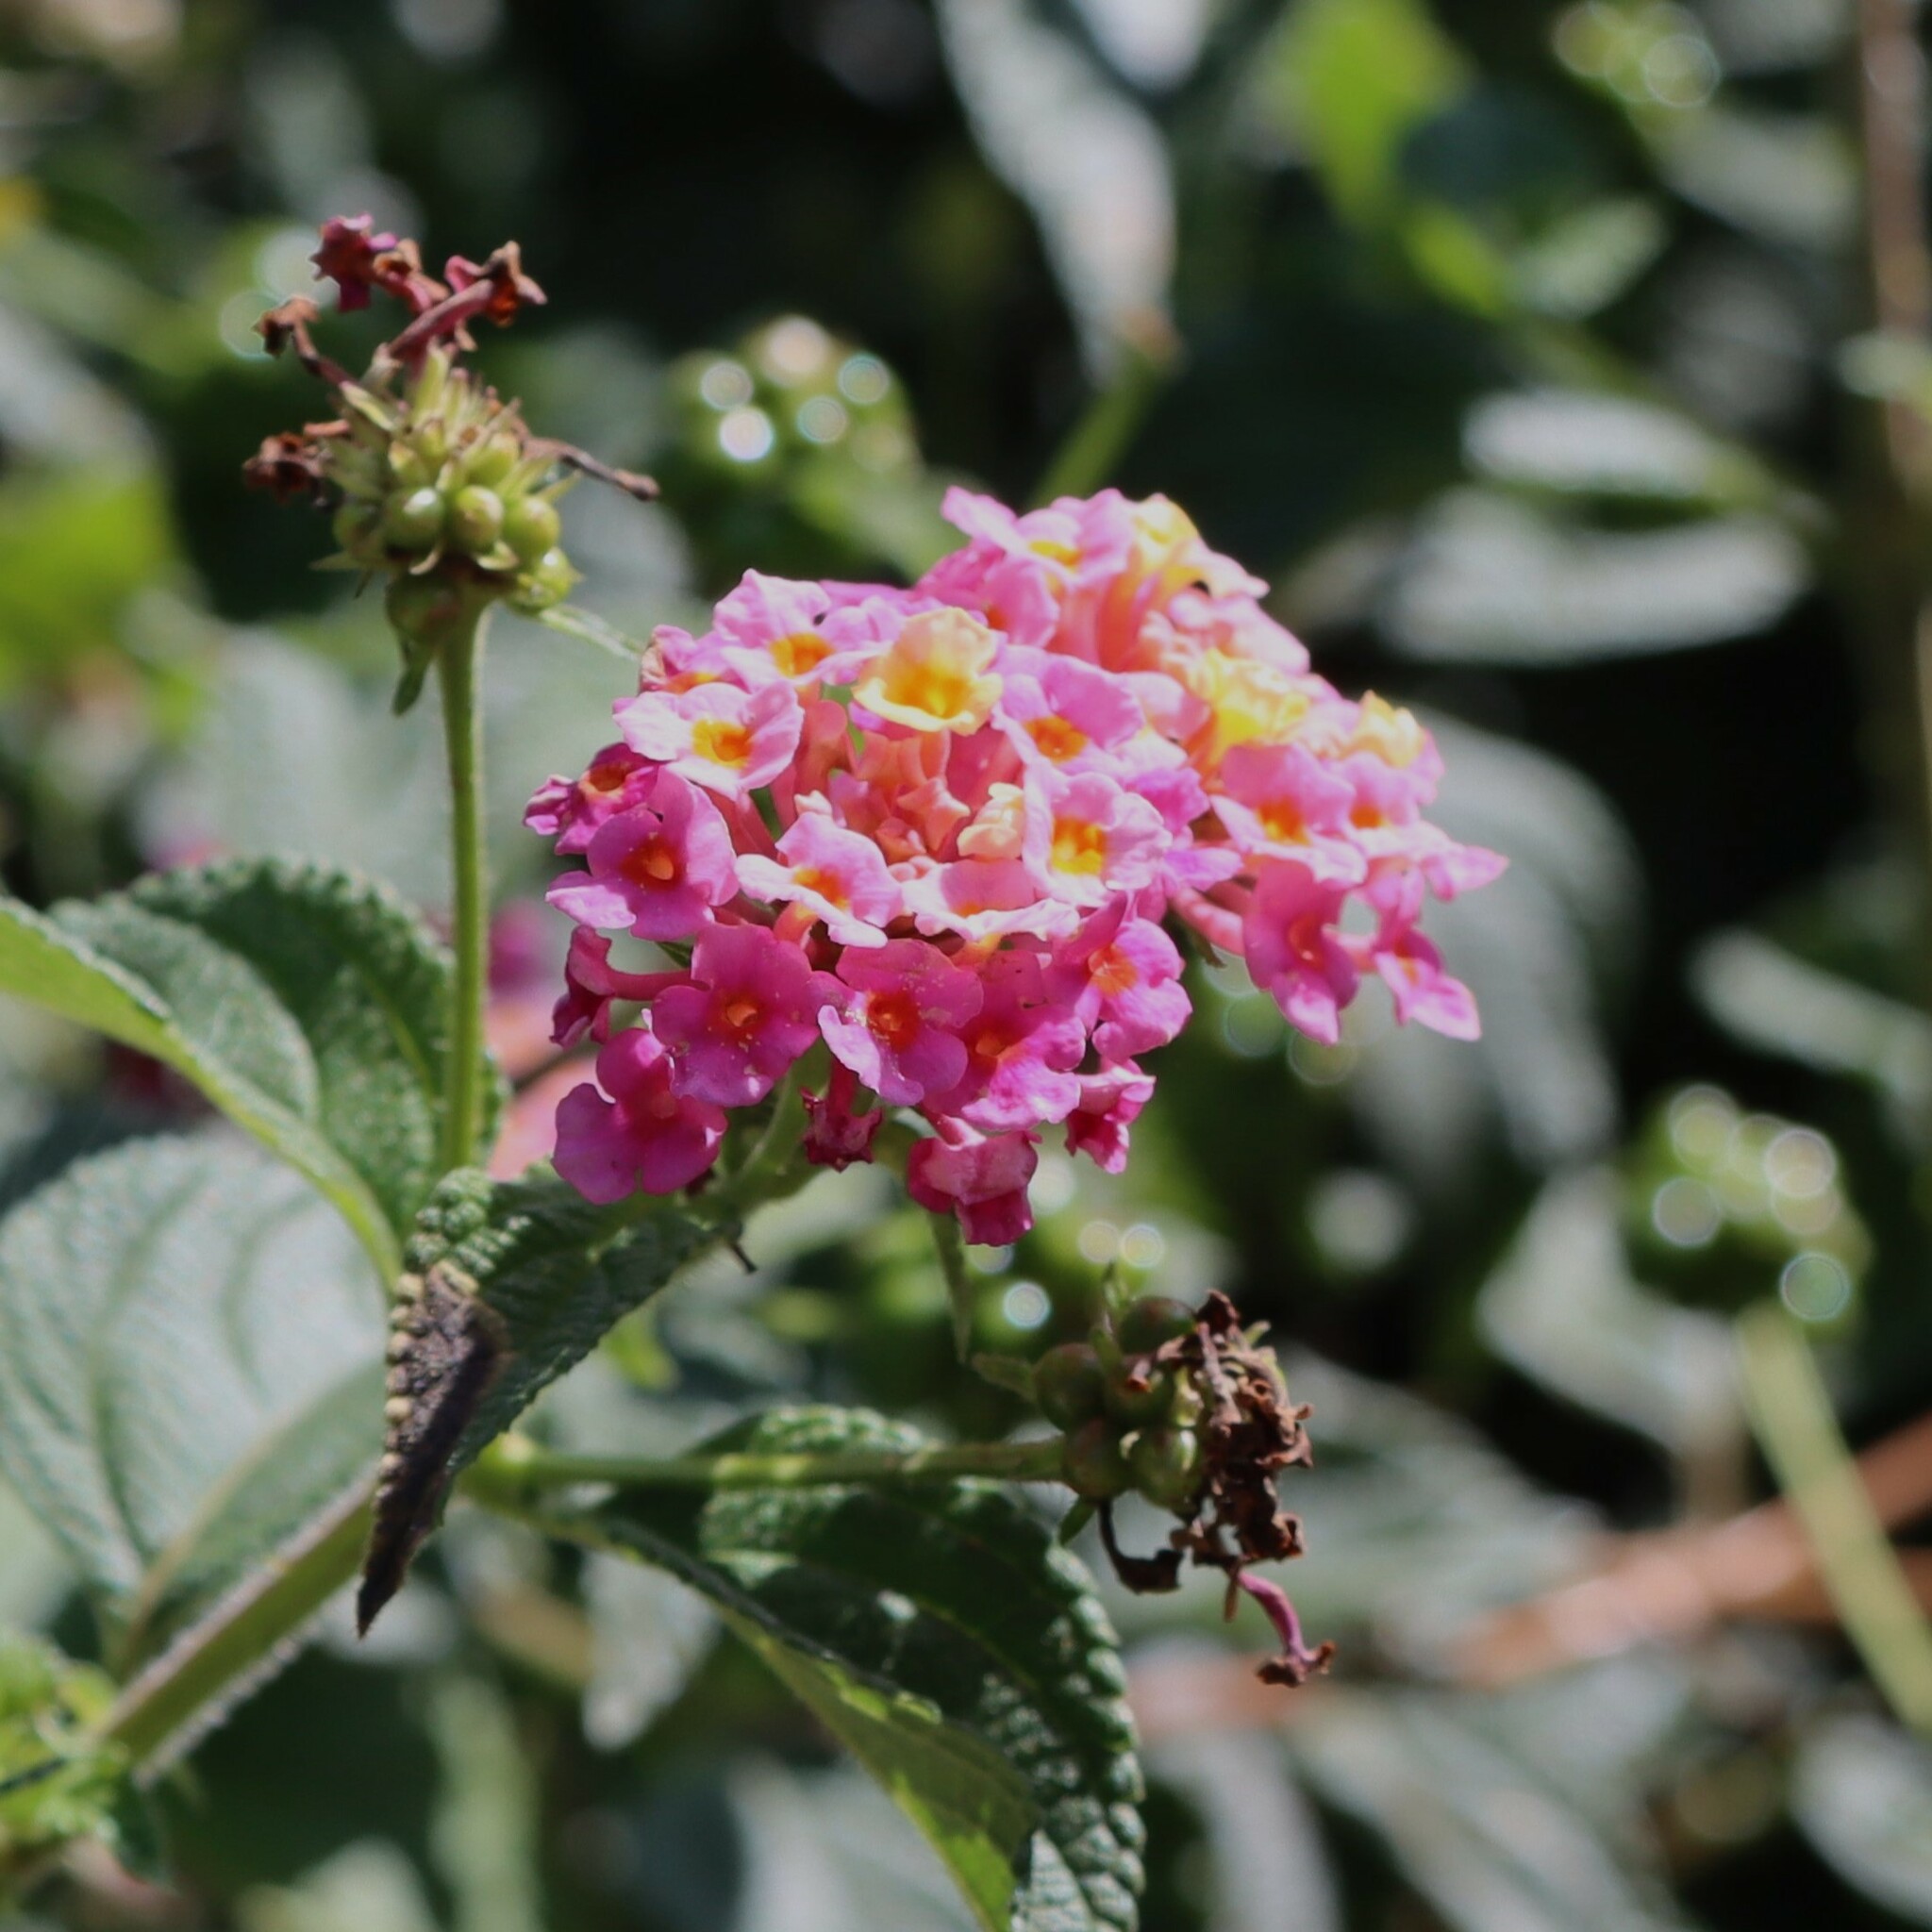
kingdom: Plantae
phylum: Tracheophyta
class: Magnoliopsida
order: Lamiales
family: Verbenaceae
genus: Lantana
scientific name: Lantana camara
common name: Lantana
